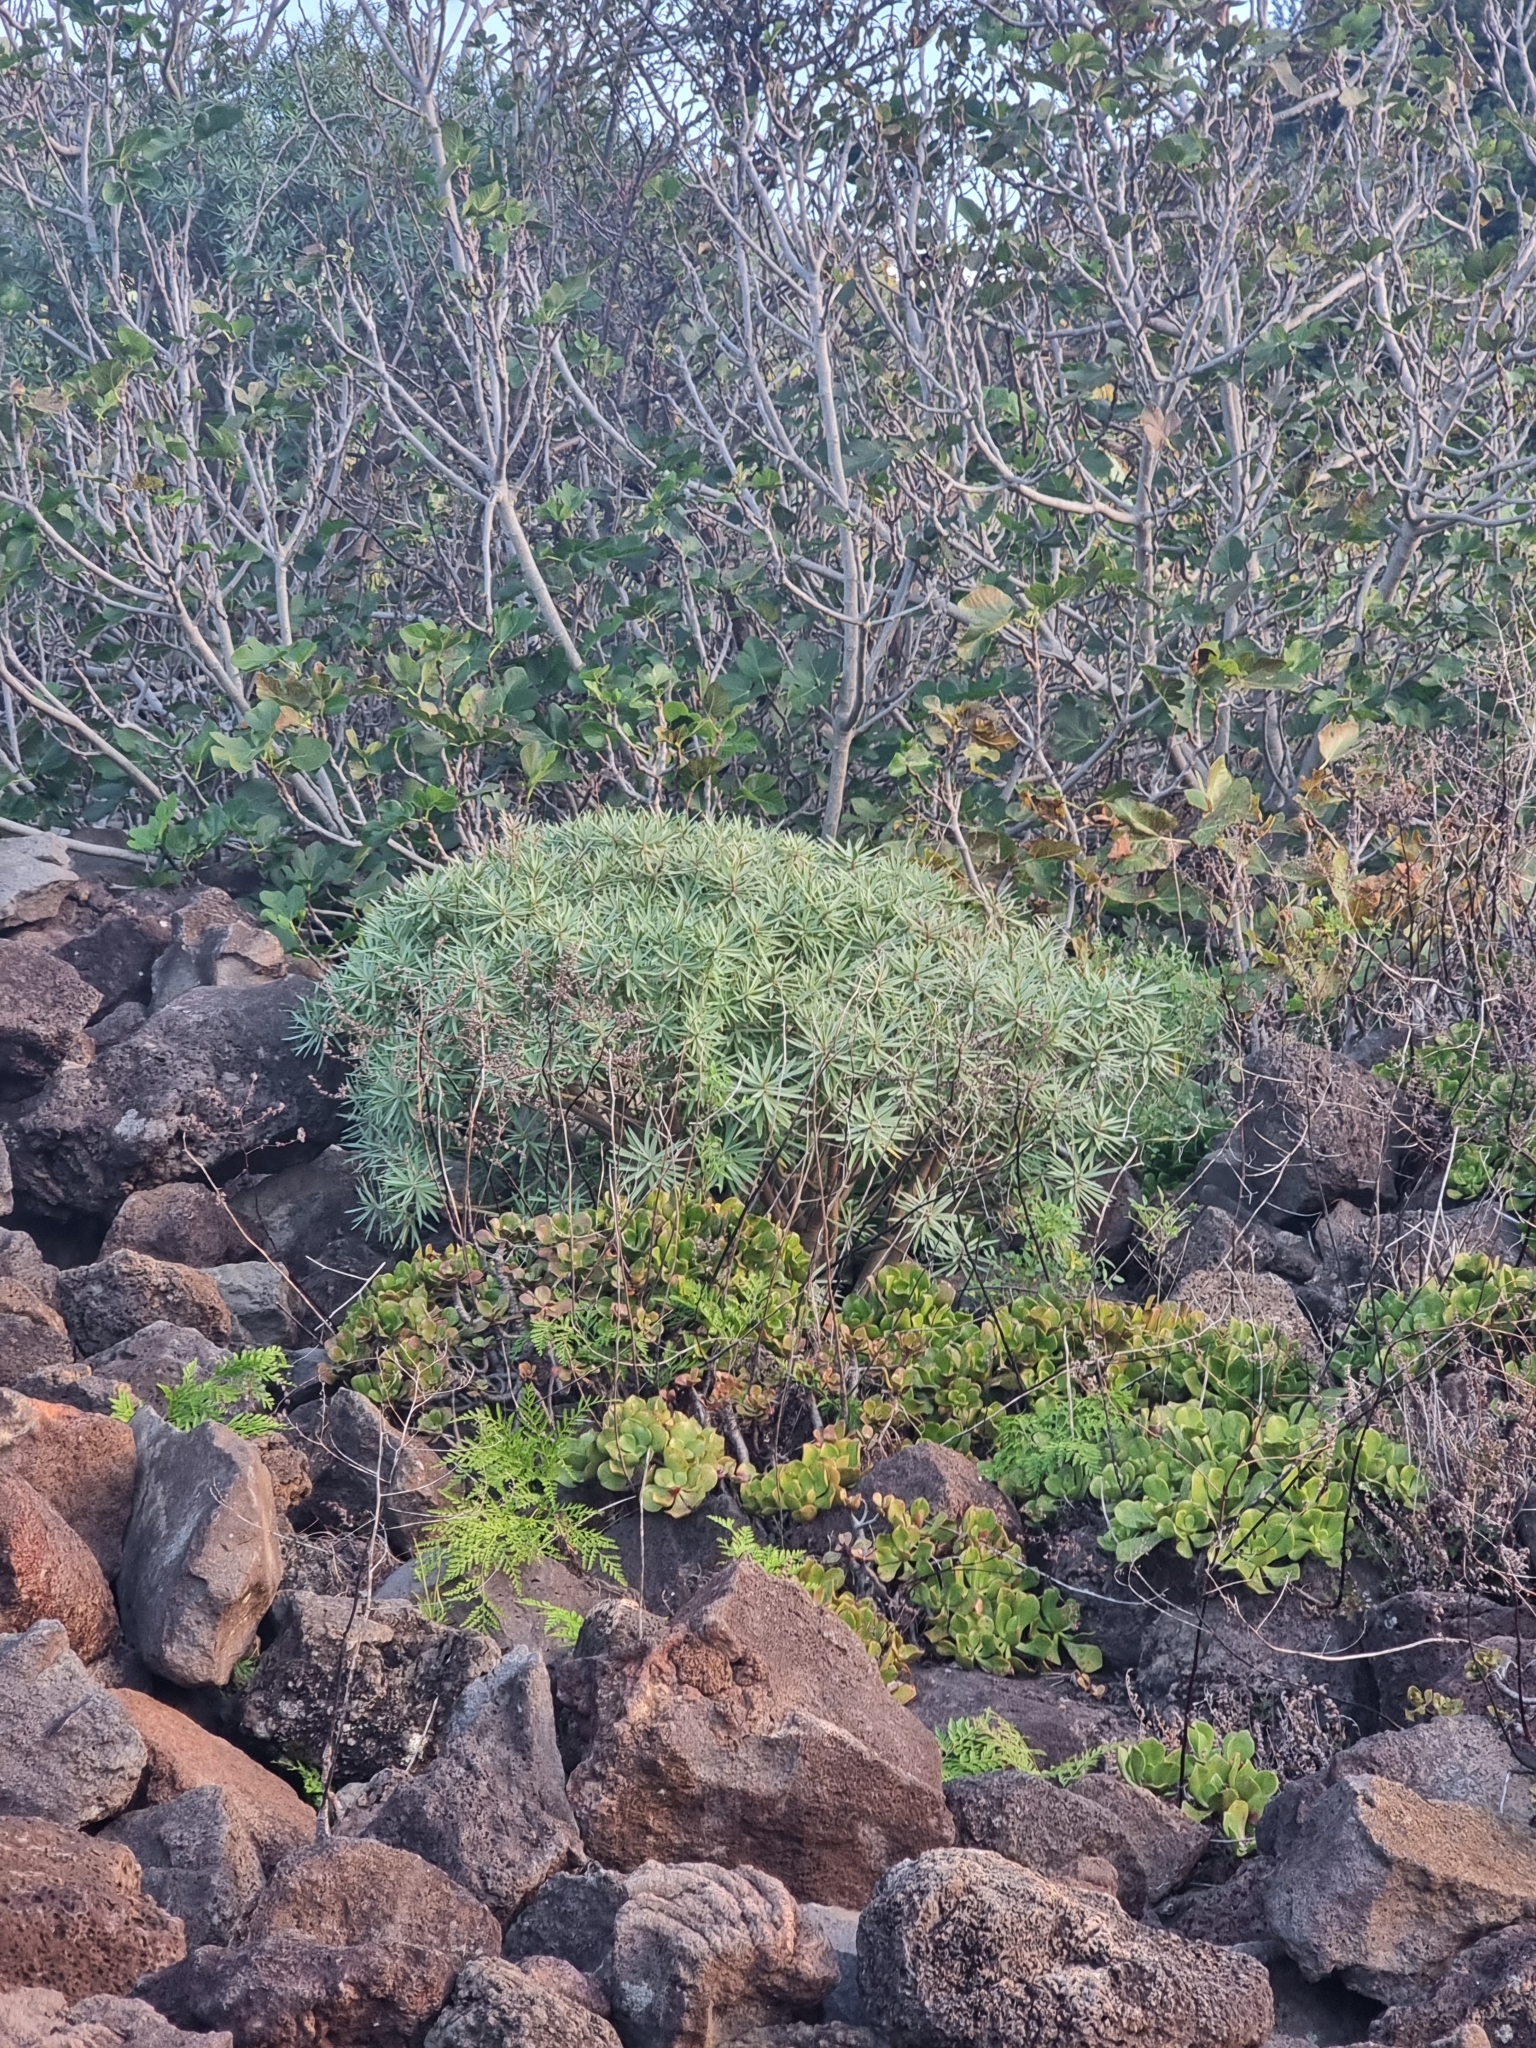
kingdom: Plantae
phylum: Tracheophyta
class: Magnoliopsida
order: Malpighiales
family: Euphorbiaceae
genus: Euphorbia
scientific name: Euphorbia piscatoria
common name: Fish-stunning spurge
